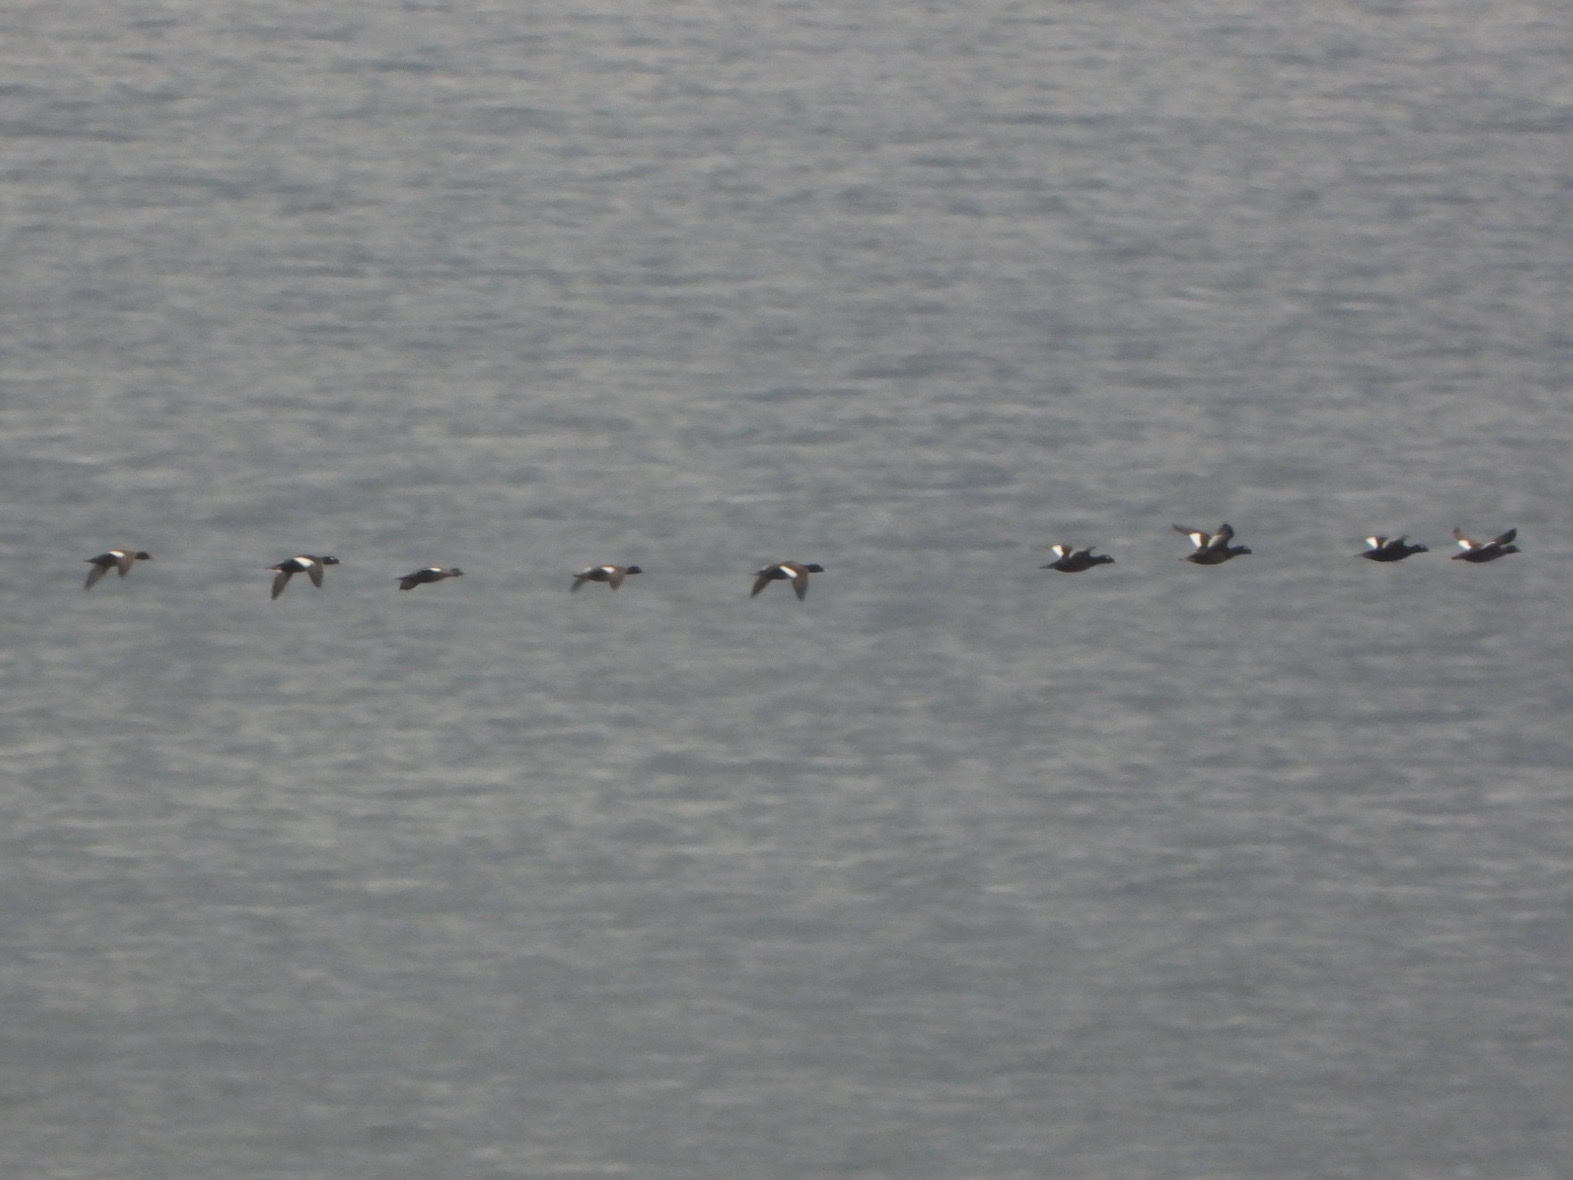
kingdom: Animalia
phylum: Chordata
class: Aves
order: Anseriformes
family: Anatidae
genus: Melanitta
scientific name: Melanitta deglandi
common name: White-winged scoter
